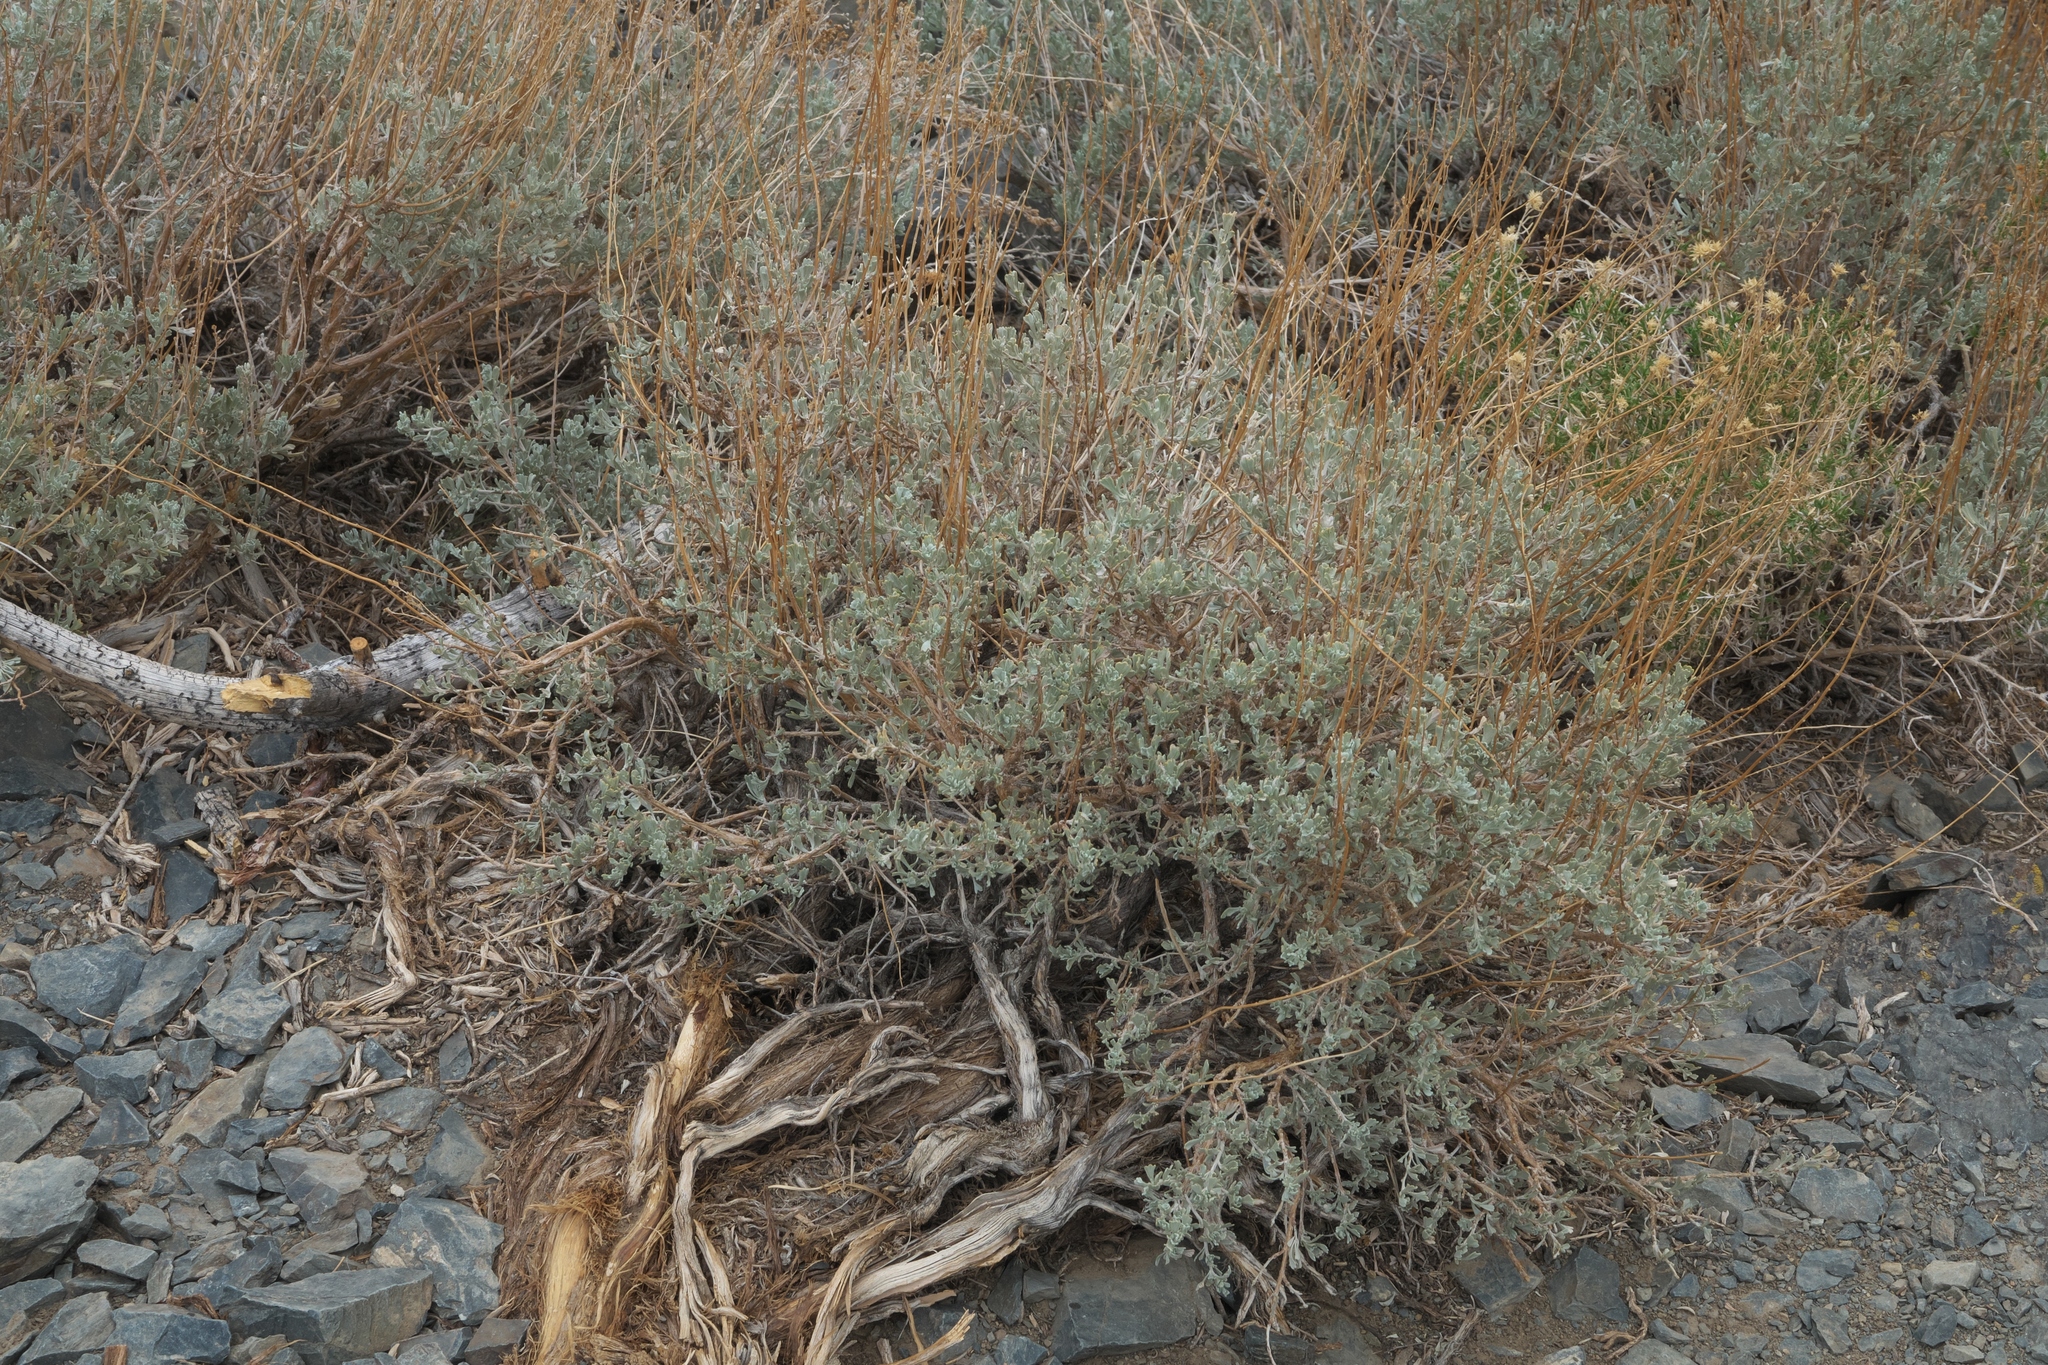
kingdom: Plantae
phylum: Tracheophyta
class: Magnoliopsida
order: Asterales
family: Asteraceae
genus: Artemisia
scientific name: Artemisia nova
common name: Black-sage
